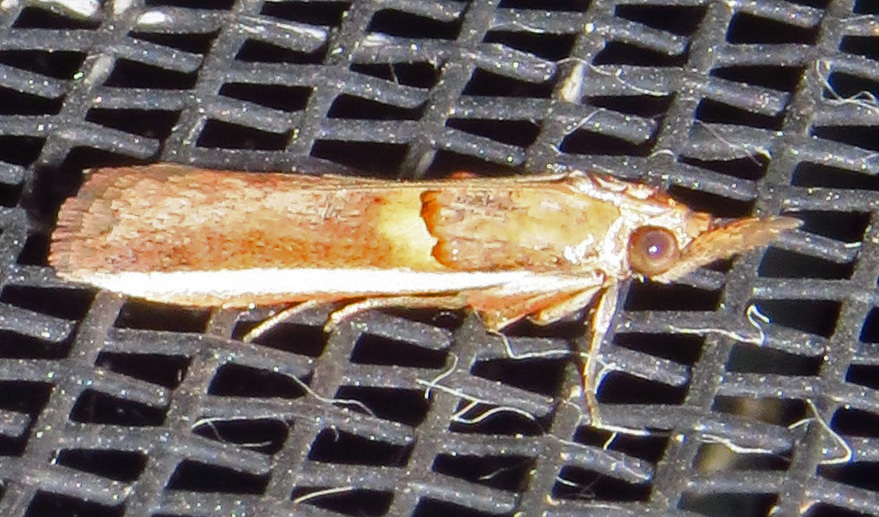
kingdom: Animalia
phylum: Arthropoda
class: Insecta
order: Lepidoptera
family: Pyralidae
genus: Etiella
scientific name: Etiella zinckenella
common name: Gold-banded etiella moth
